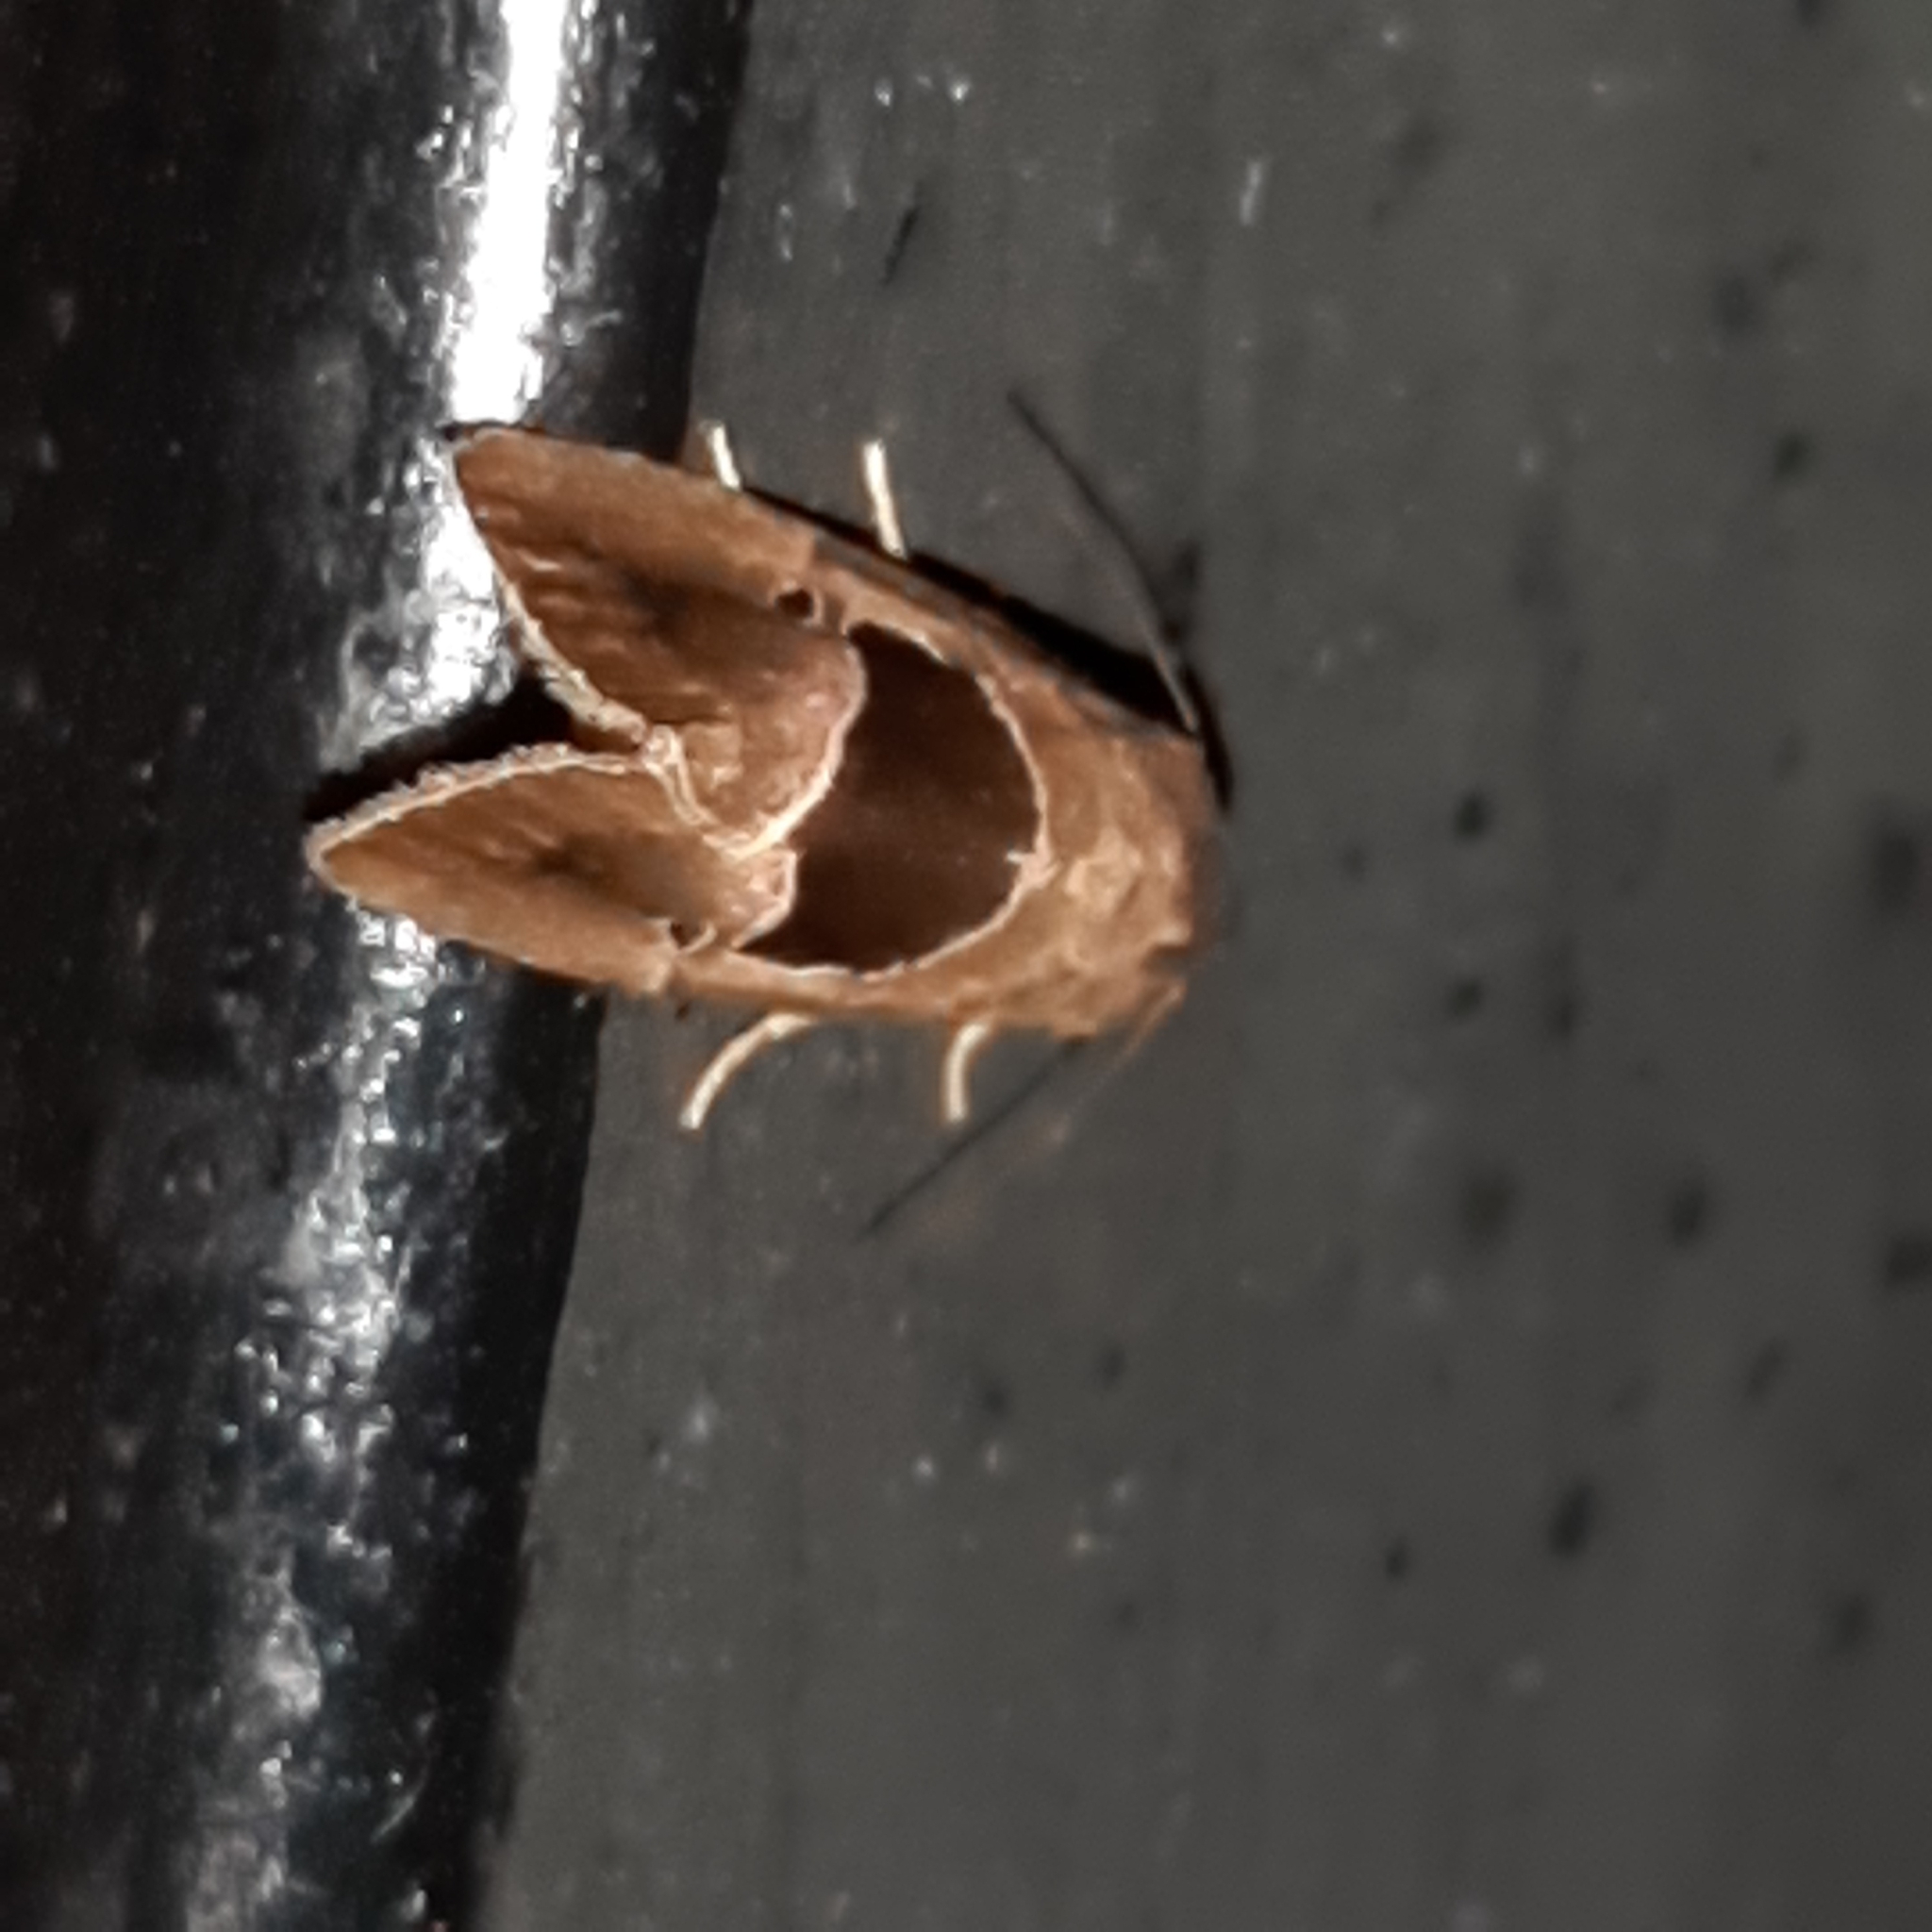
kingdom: Animalia
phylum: Arthropoda
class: Insecta
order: Lepidoptera
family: Noctuidae
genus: Elaphria
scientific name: Elaphria deltoides
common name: Cutworm moth
